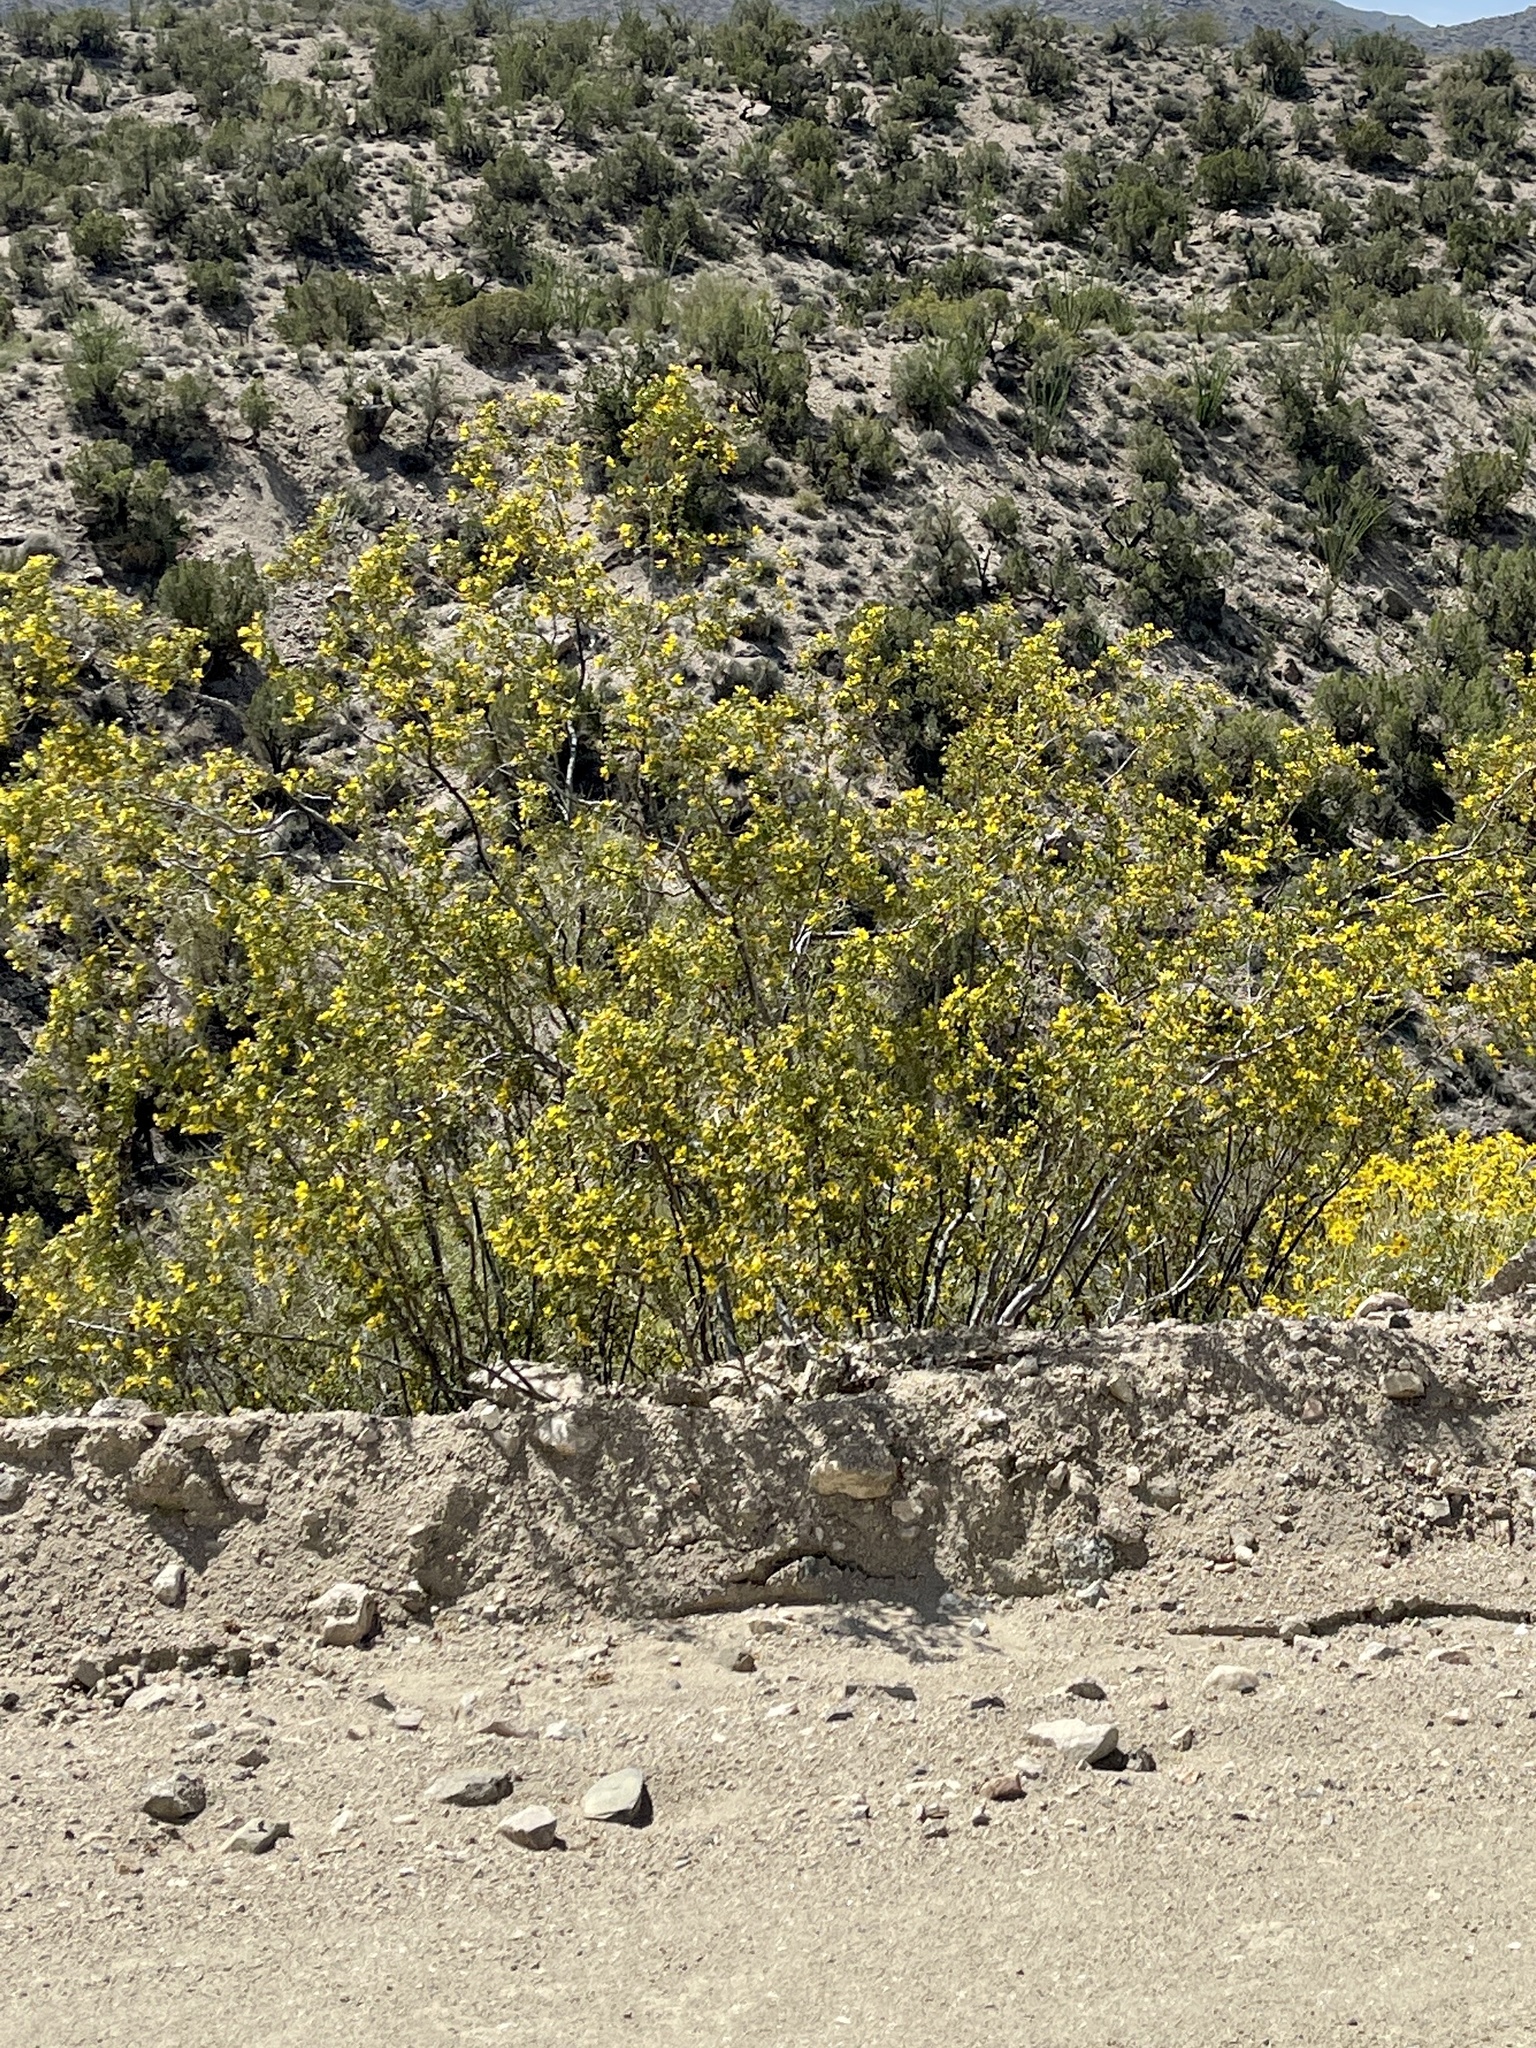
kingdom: Plantae
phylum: Tracheophyta
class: Magnoliopsida
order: Zygophyllales
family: Zygophyllaceae
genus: Larrea
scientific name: Larrea tridentata
